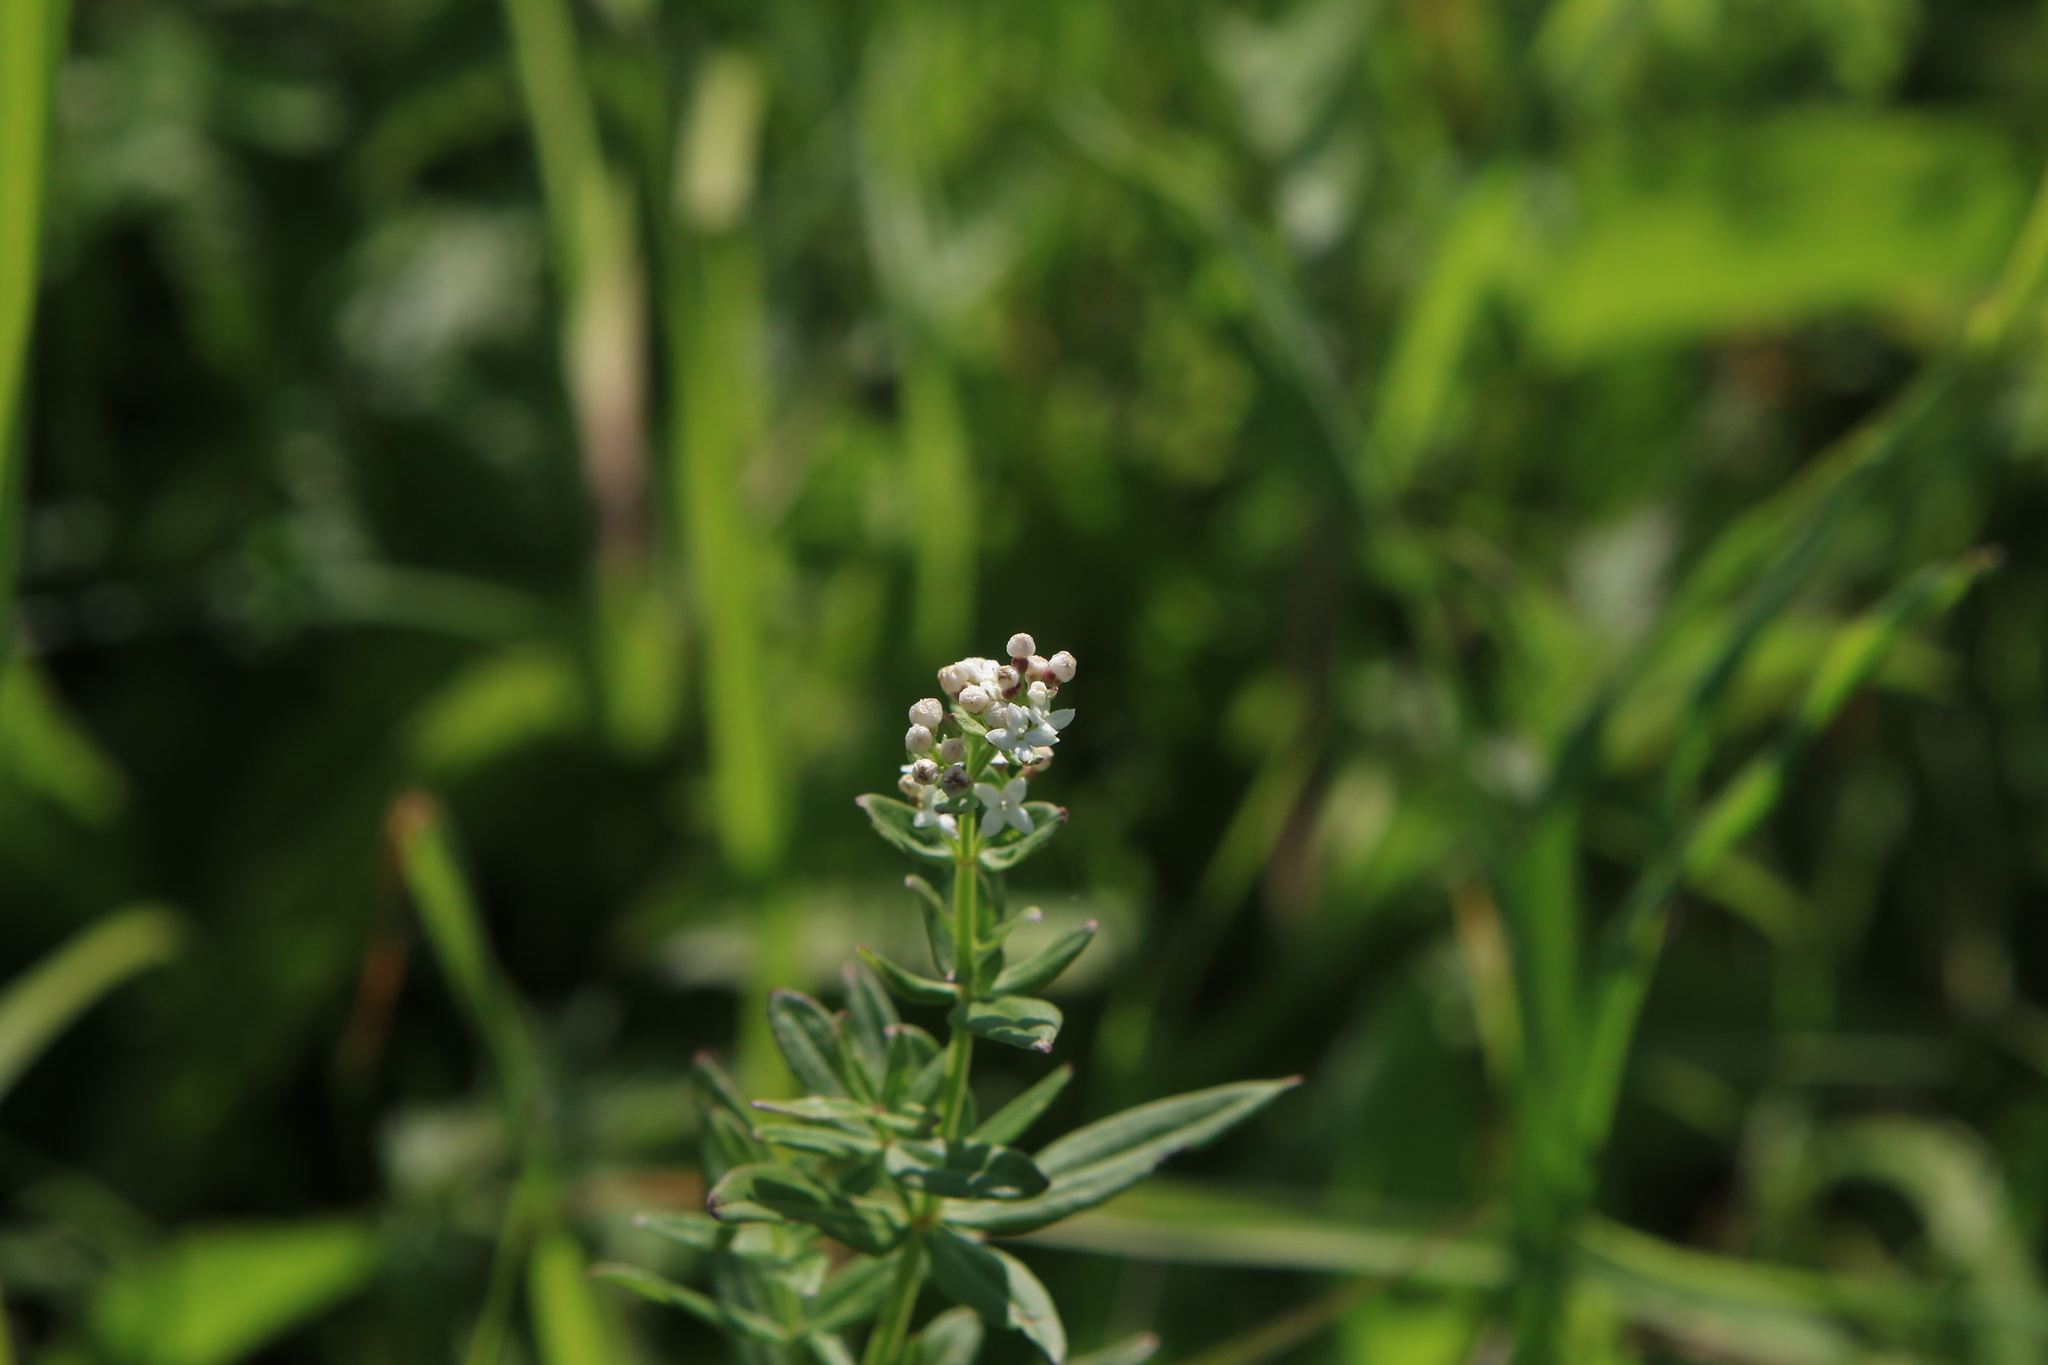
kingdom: Plantae
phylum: Tracheophyta
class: Magnoliopsida
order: Gentianales
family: Rubiaceae
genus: Galium
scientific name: Galium boreale
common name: Northern bedstraw
